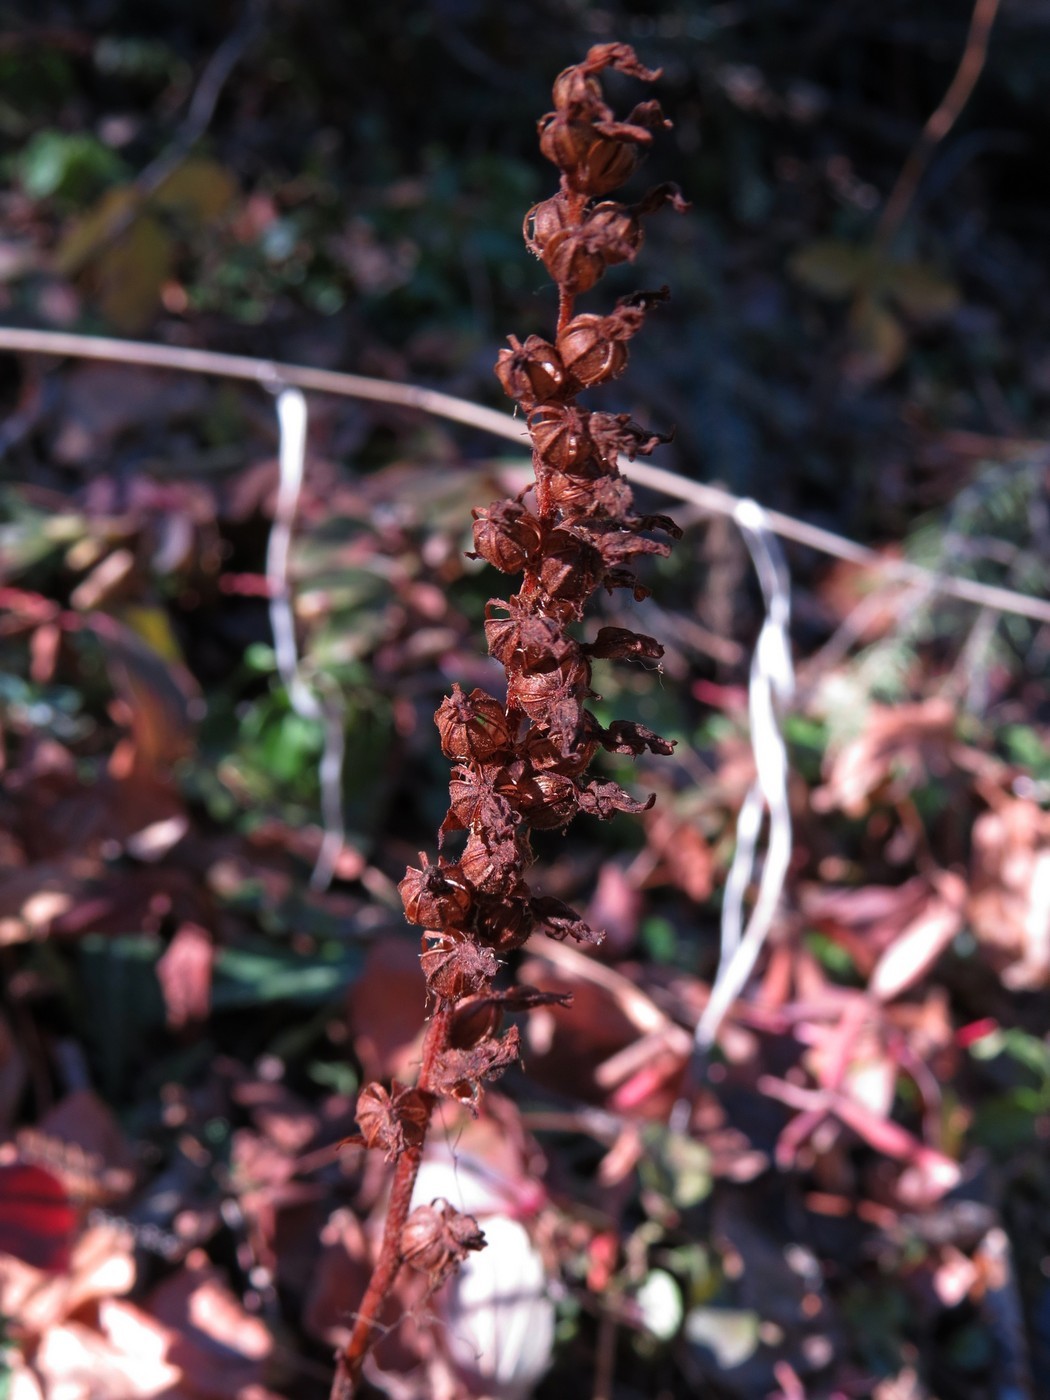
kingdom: Plantae
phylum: Tracheophyta
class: Liliopsida
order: Asparagales
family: Orchidaceae
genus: Goodyera
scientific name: Goodyera oblongifolia
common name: Giant rattlesnake-plantain
